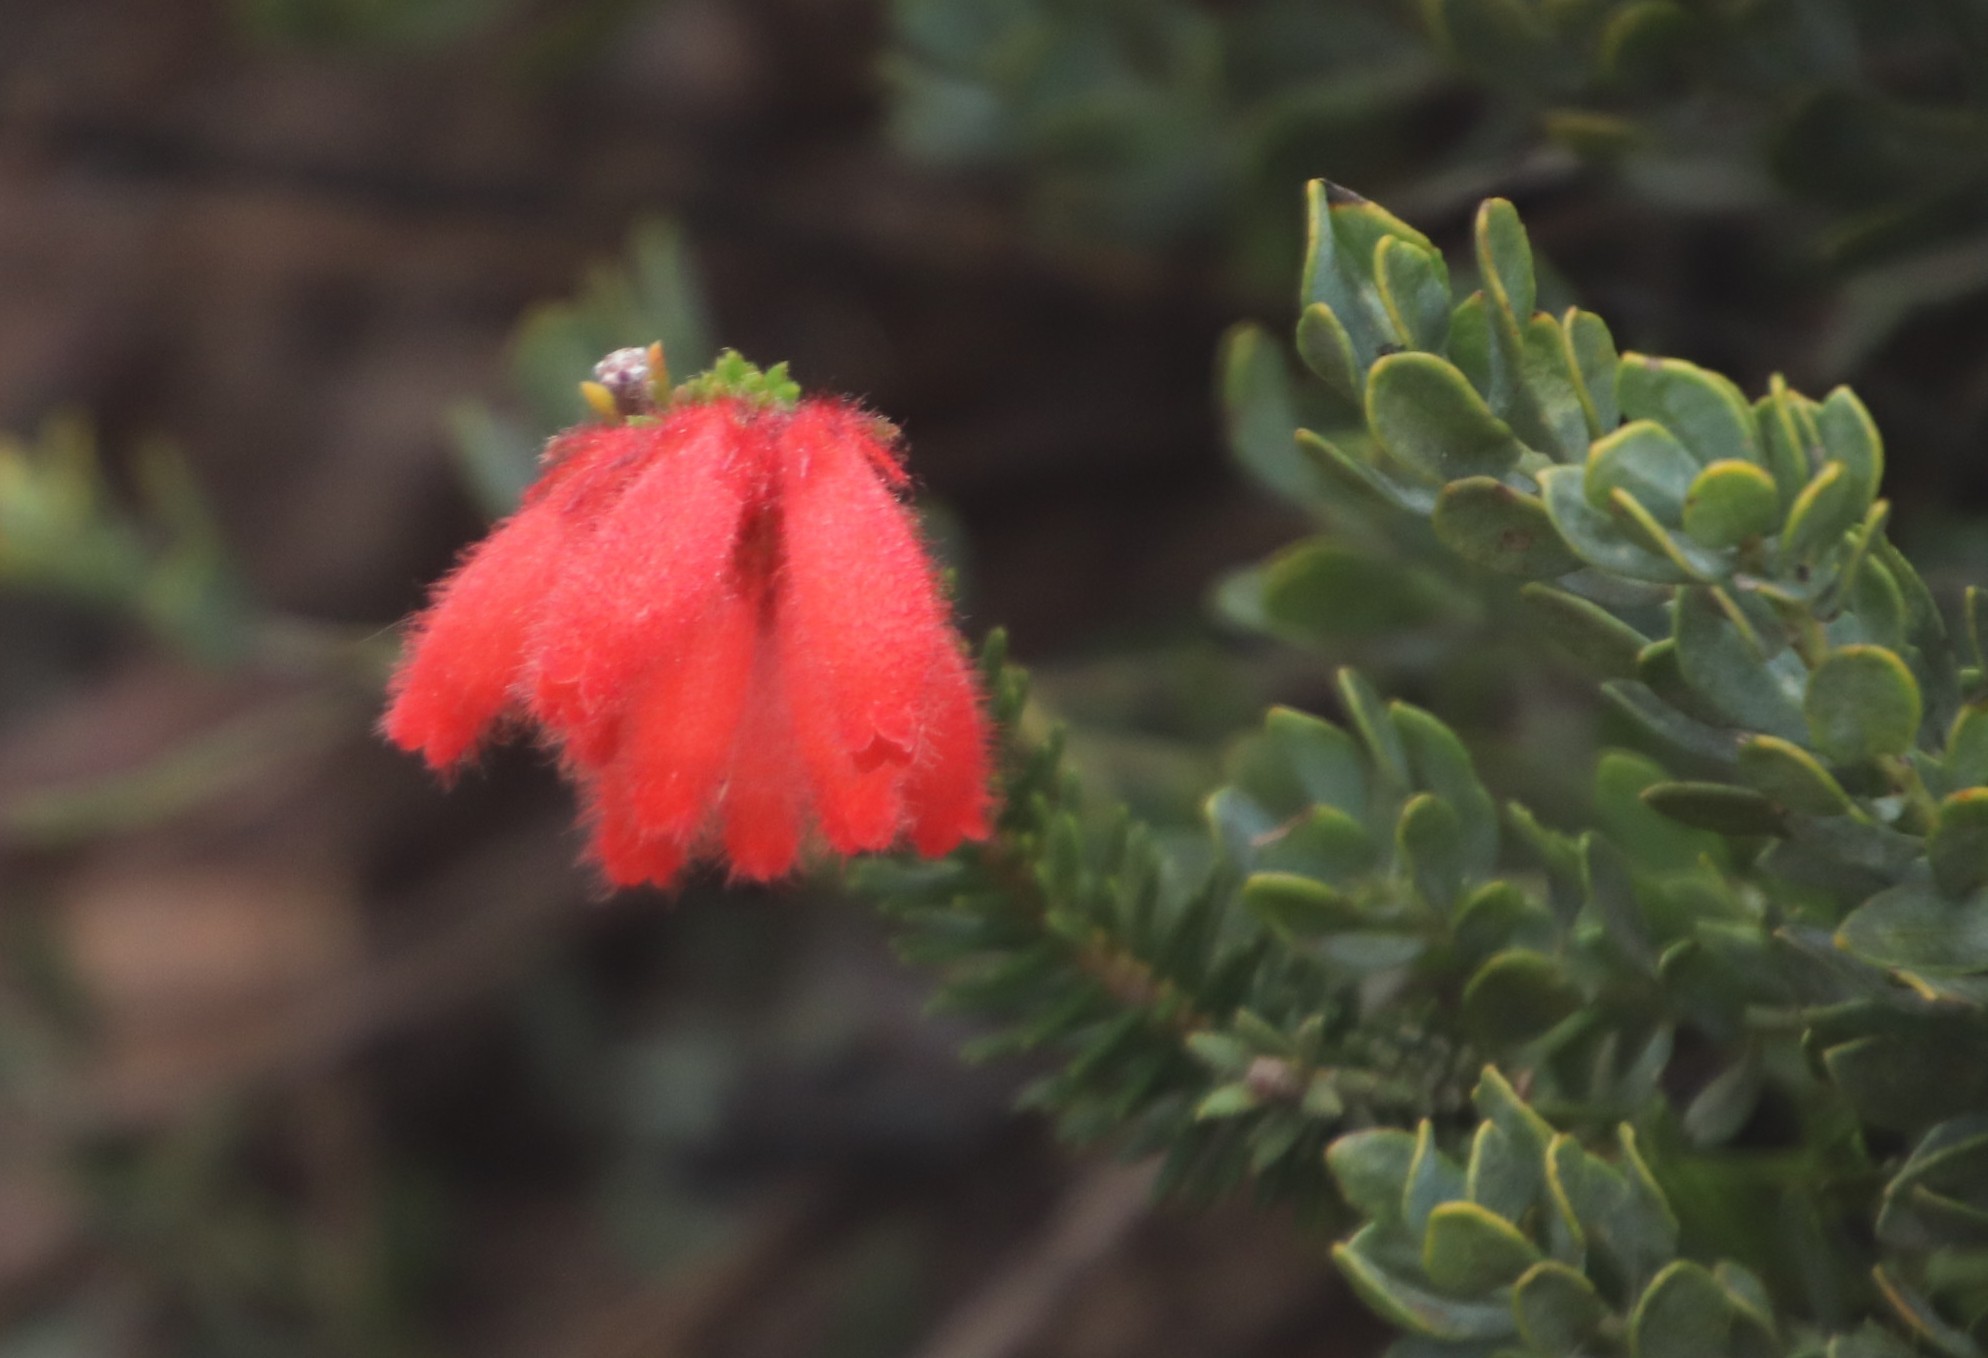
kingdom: Plantae
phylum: Tracheophyta
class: Magnoliopsida
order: Ericales
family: Ericaceae
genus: Erica
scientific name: Erica cerinthoides
